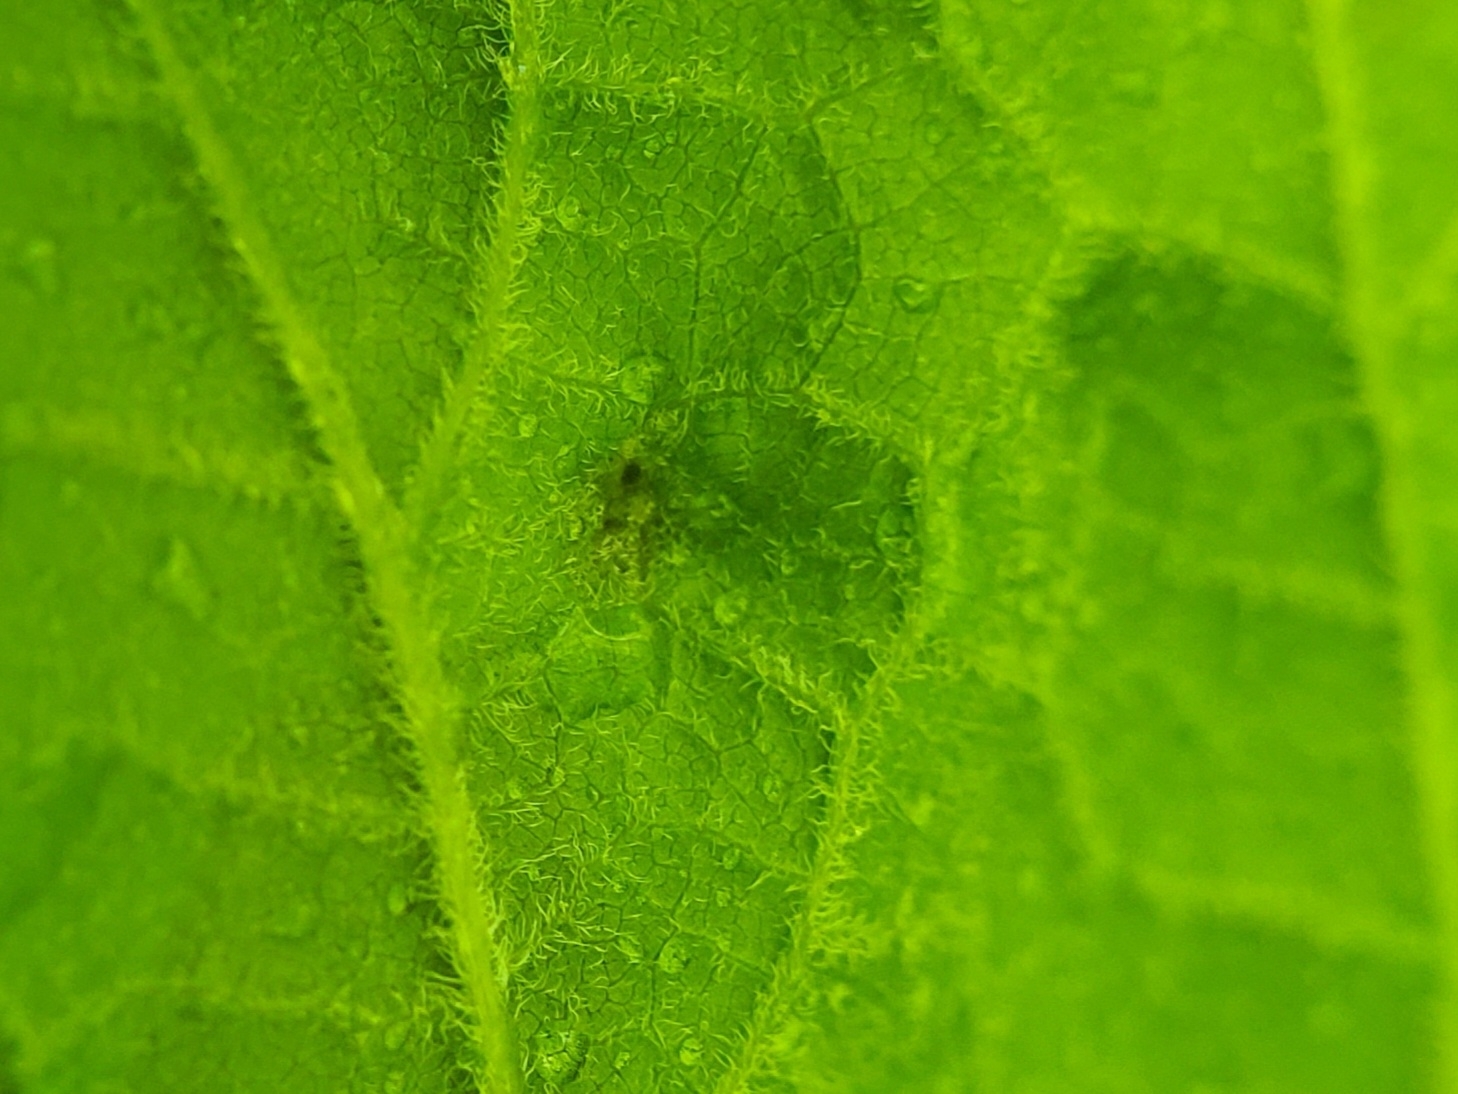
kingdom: Animalia
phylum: Arthropoda
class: Arachnida
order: Trombidiformes
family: Eriophyidae
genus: Aceria
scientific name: Aceria
